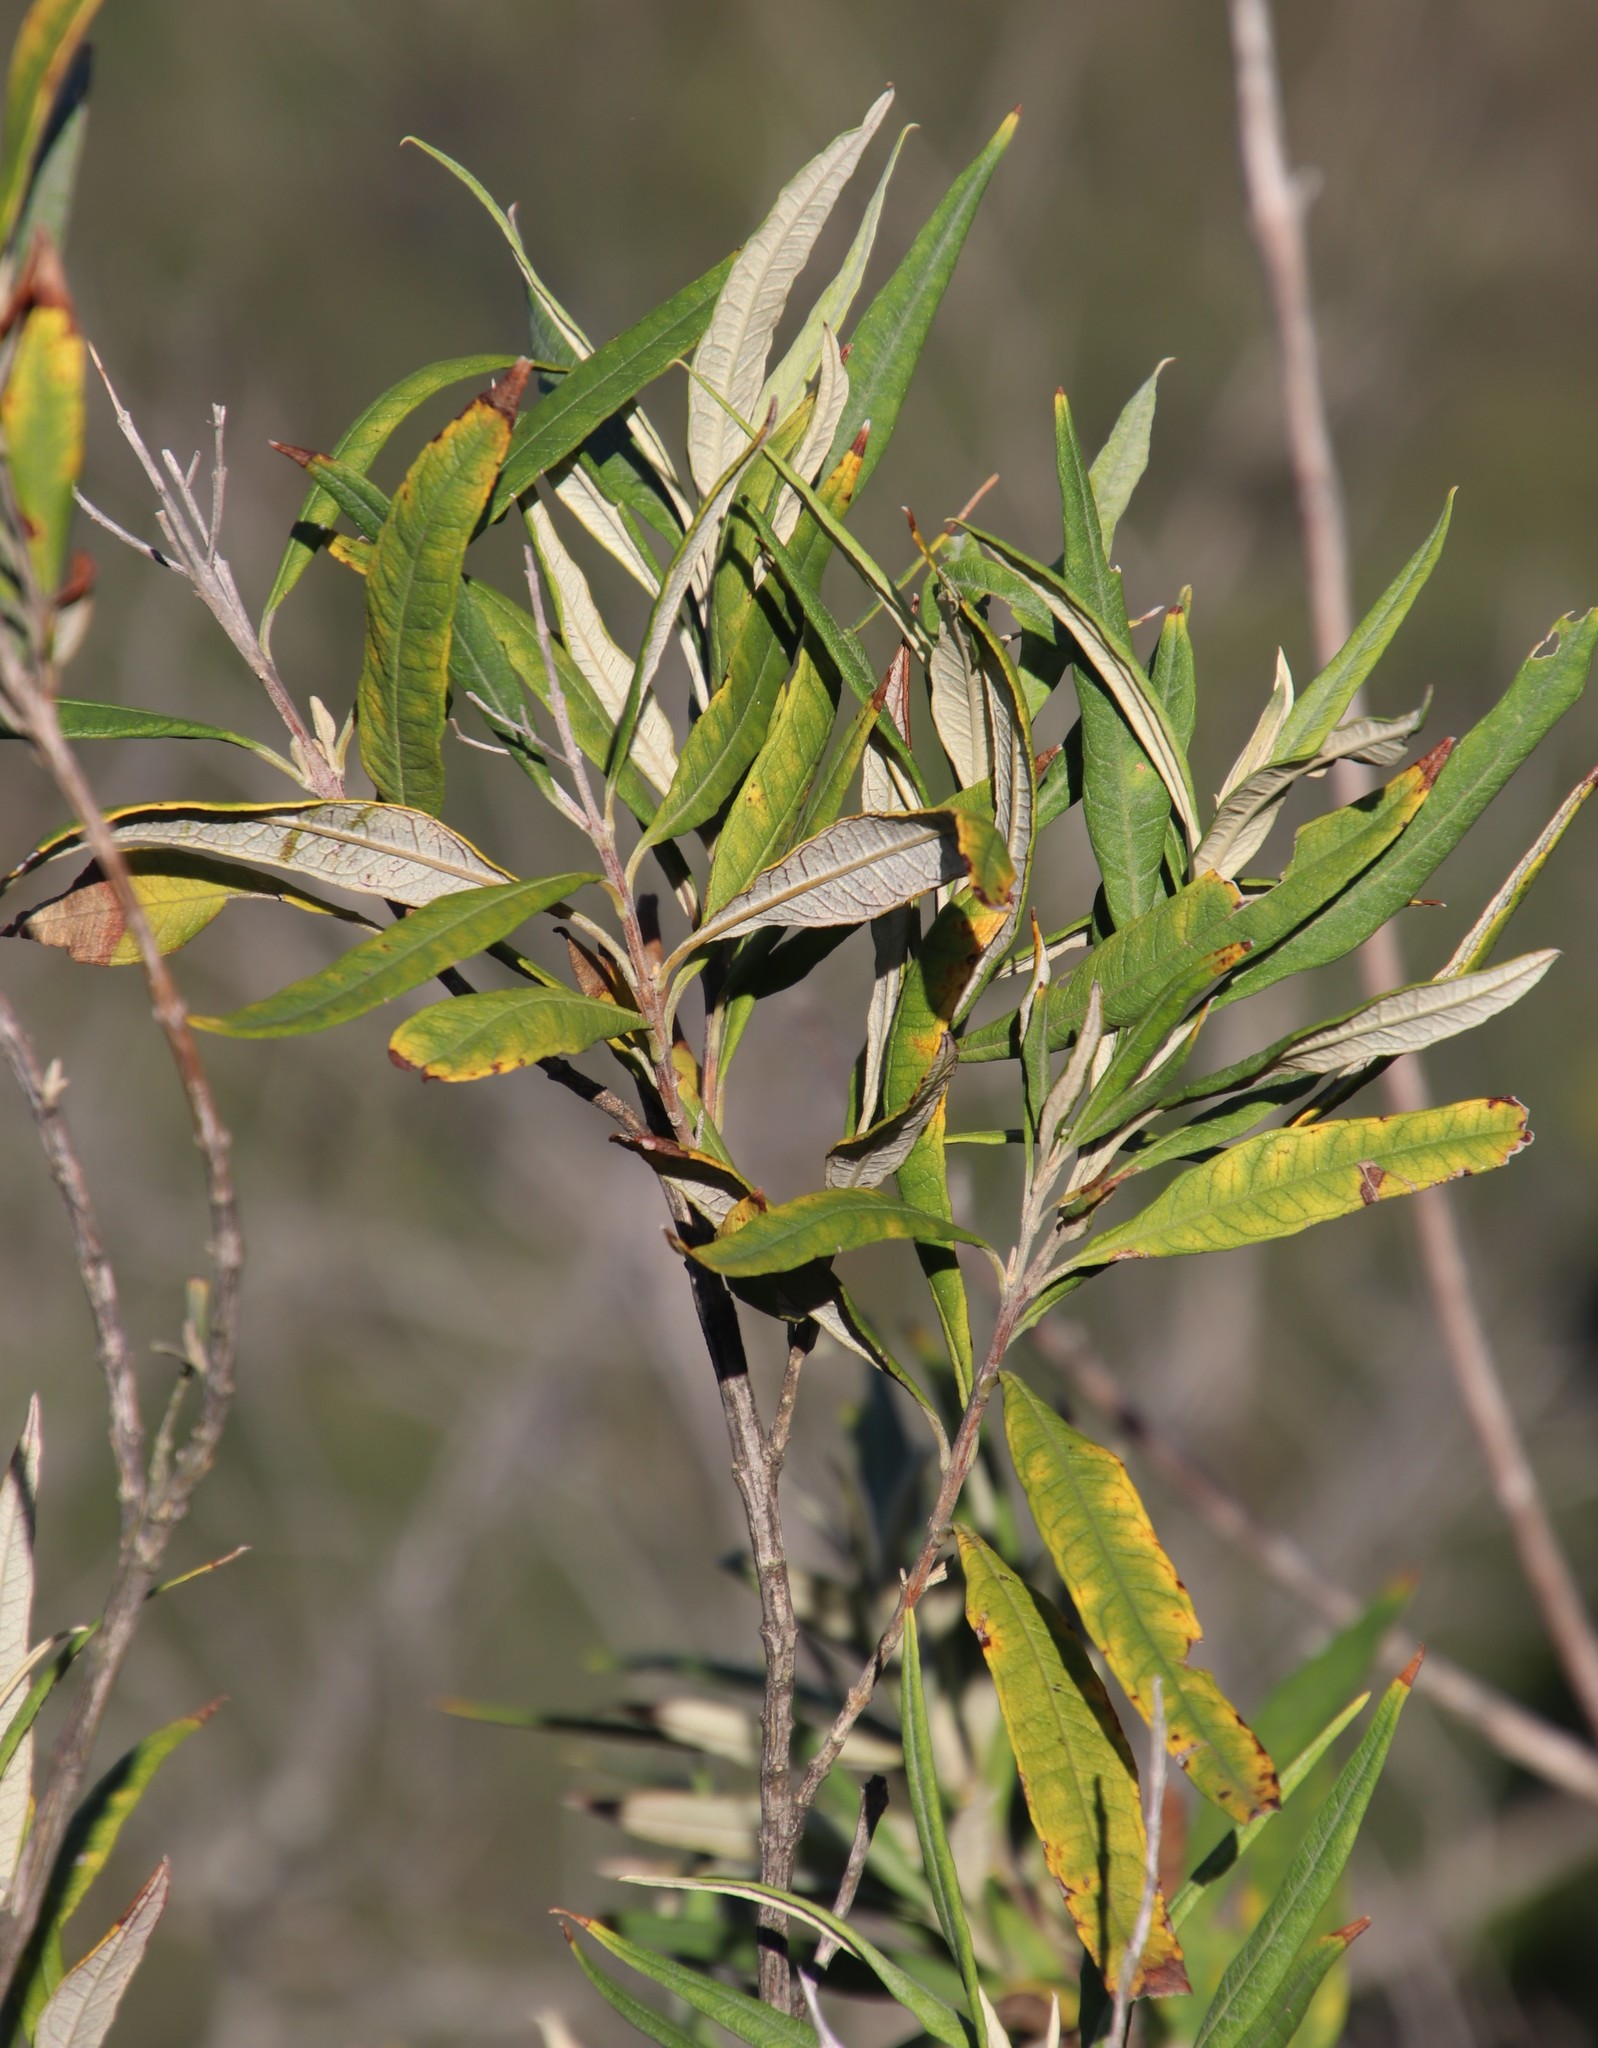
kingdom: Plantae
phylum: Tracheophyta
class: Magnoliopsida
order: Asterales
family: Asteraceae
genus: Tarchonanthus
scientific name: Tarchonanthus littoralis
